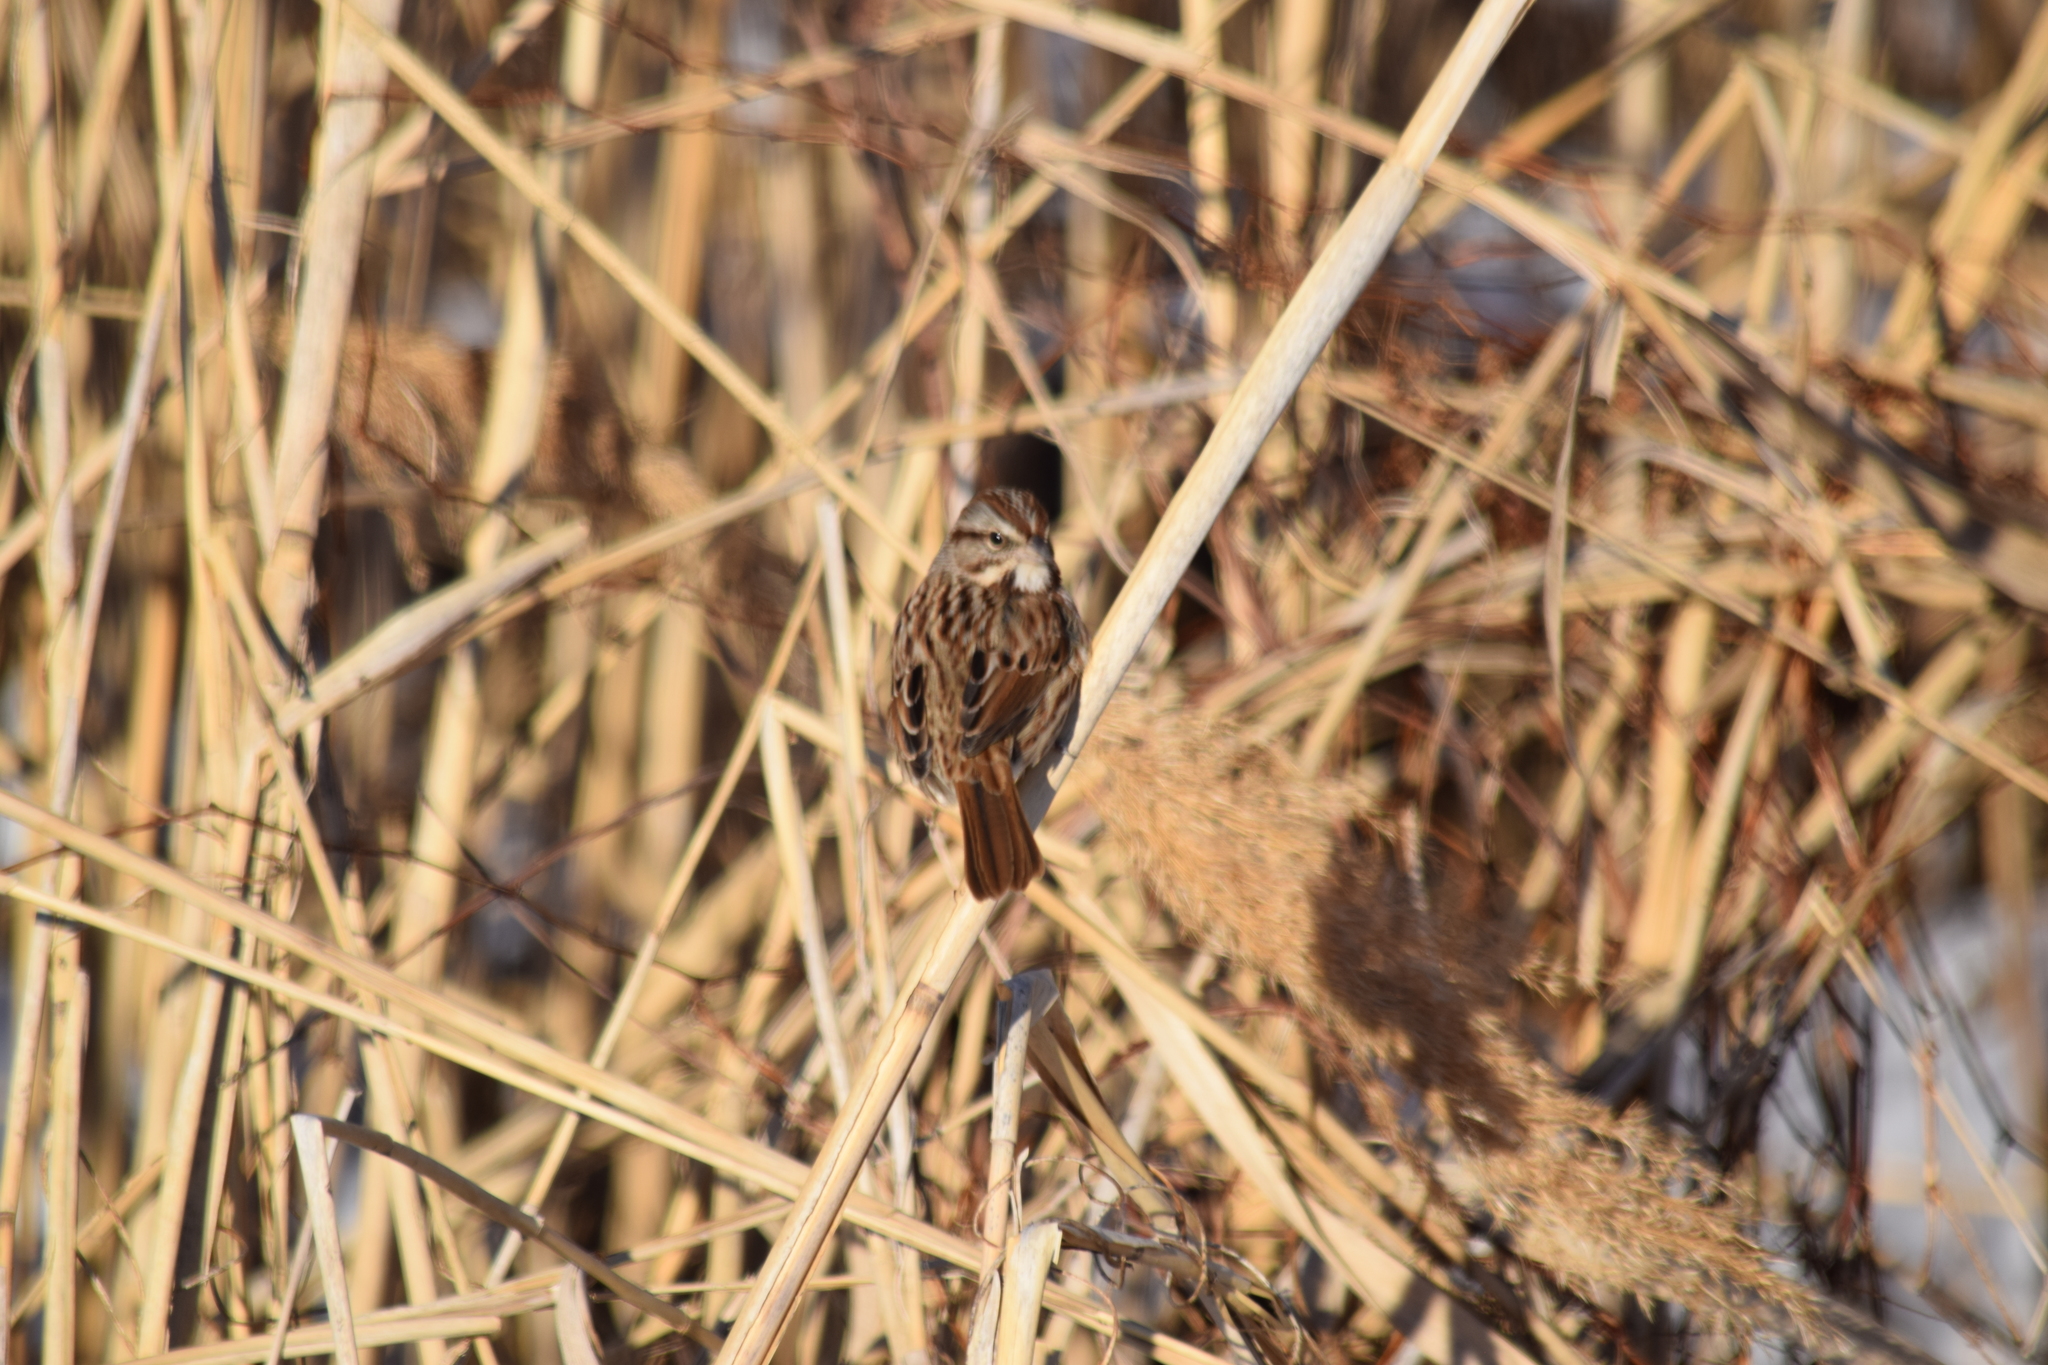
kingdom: Animalia
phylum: Chordata
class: Aves
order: Passeriformes
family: Passerellidae
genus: Melospiza
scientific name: Melospiza melodia
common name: Song sparrow
